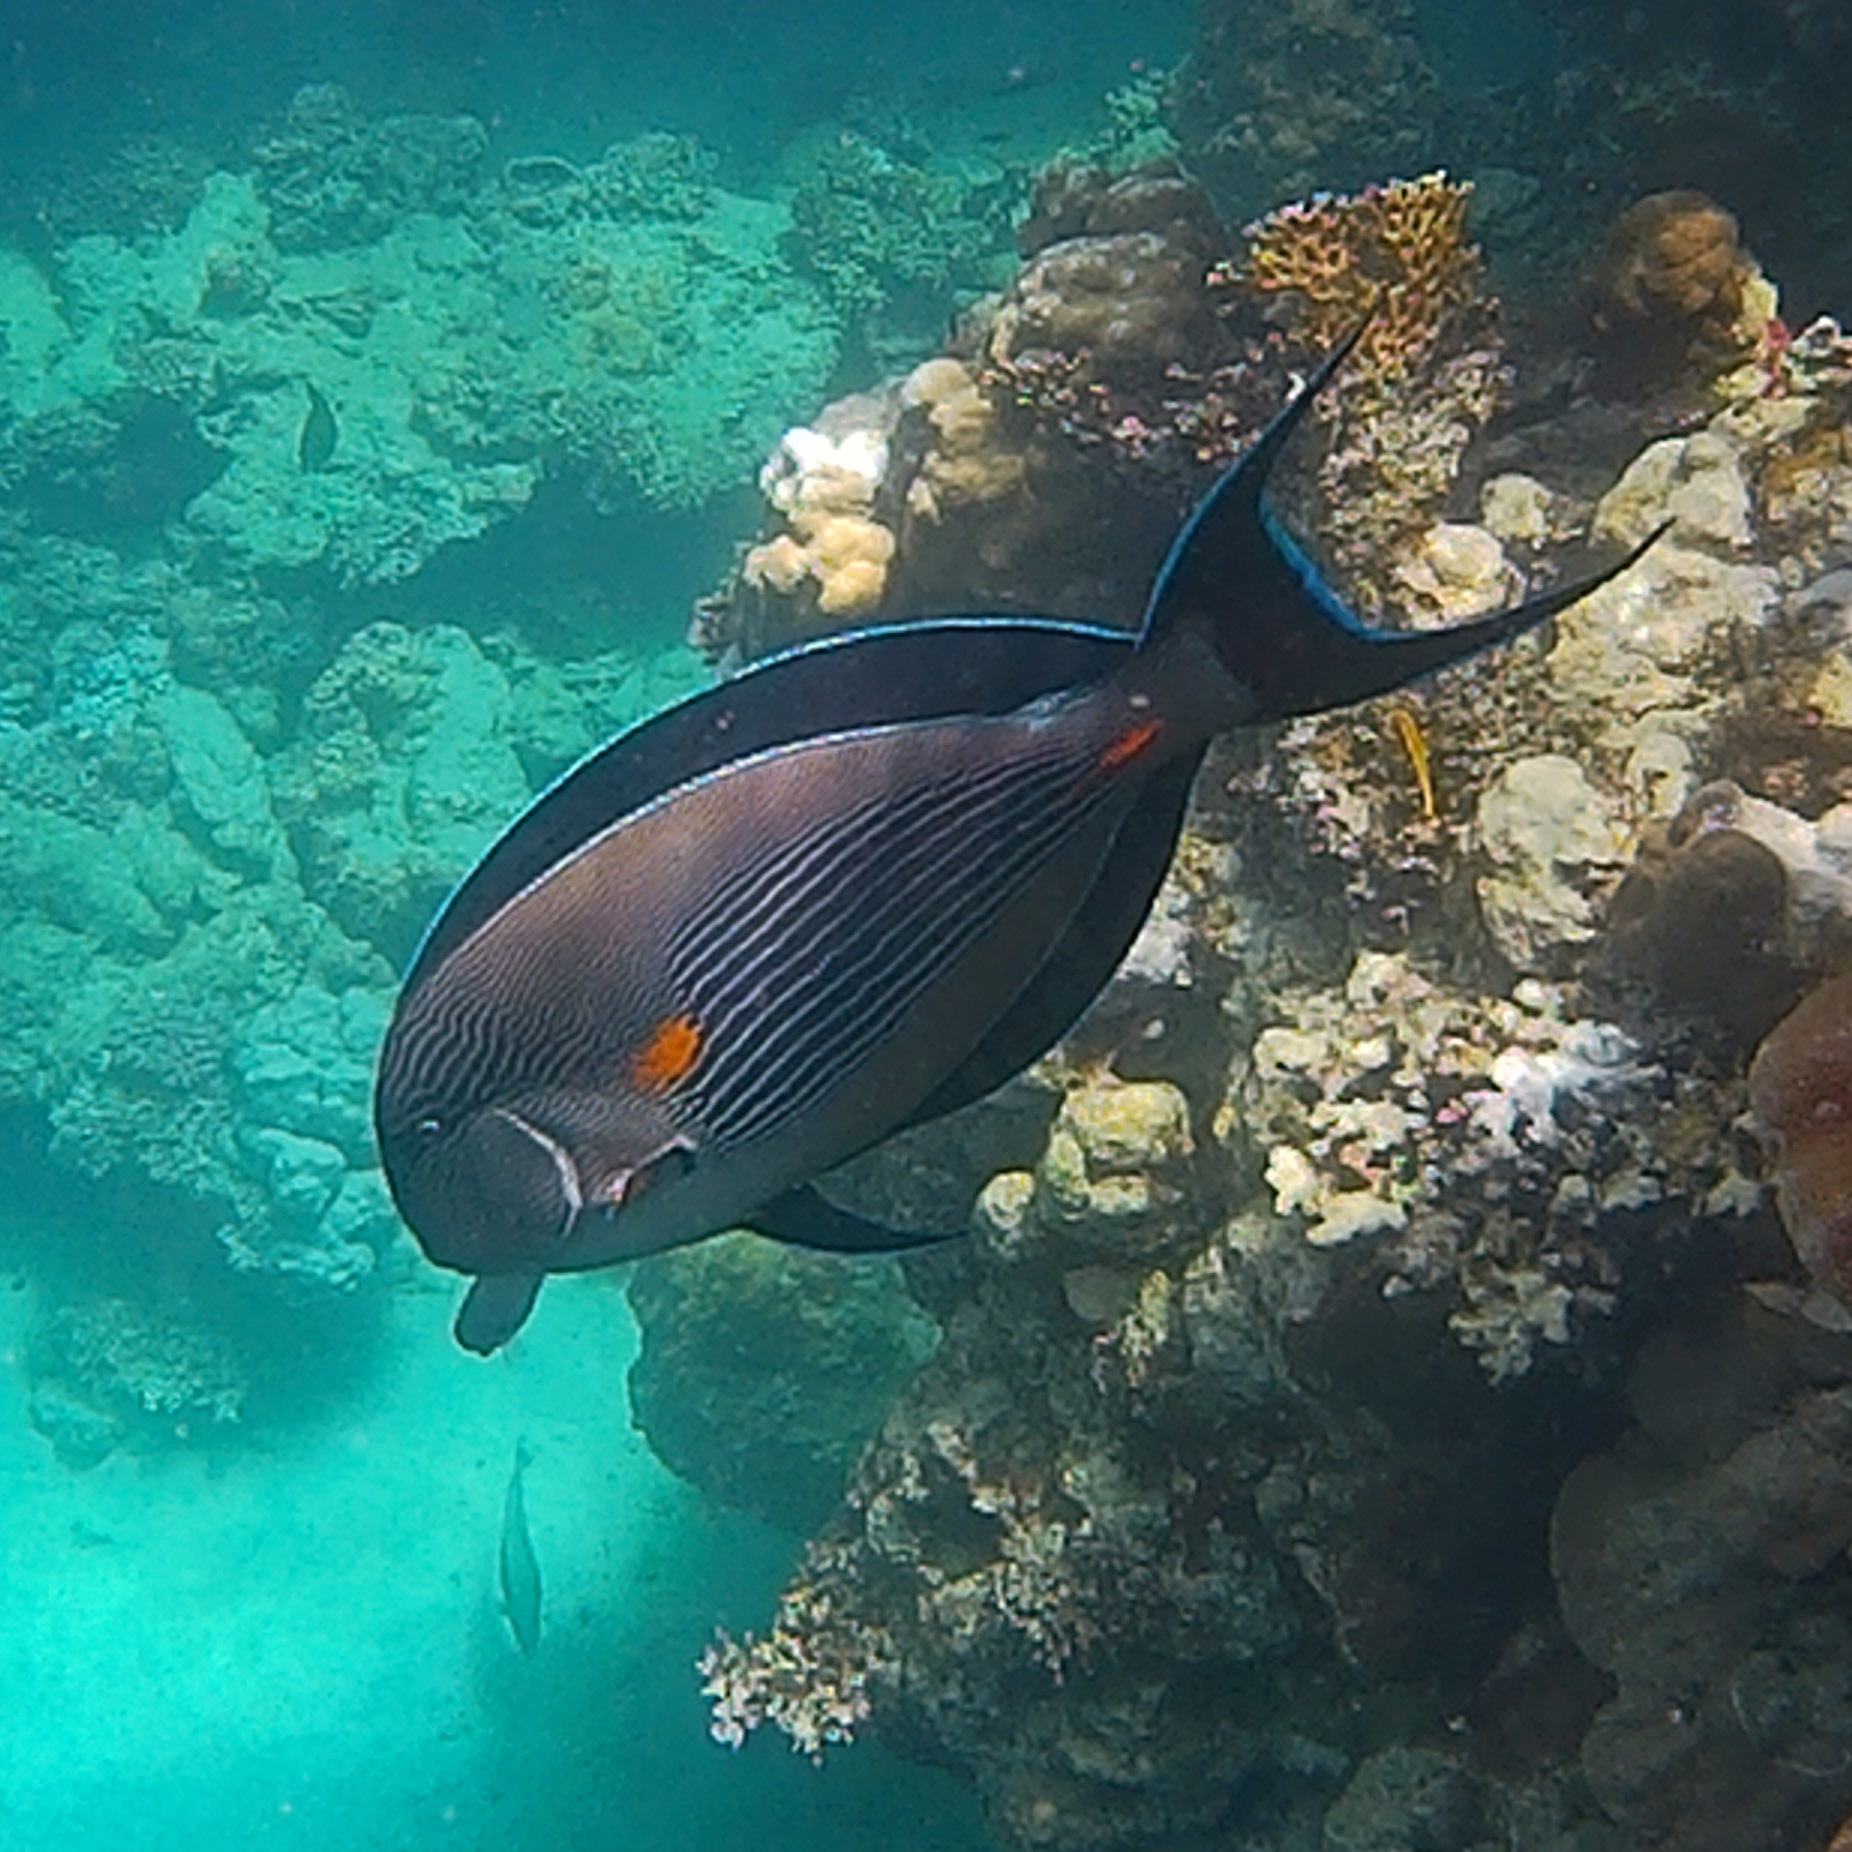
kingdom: Animalia
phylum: Chordata
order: Perciformes
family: Acanthuridae
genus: Acanthurus
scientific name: Acanthurus sohal
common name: Red sea surgeonfish
